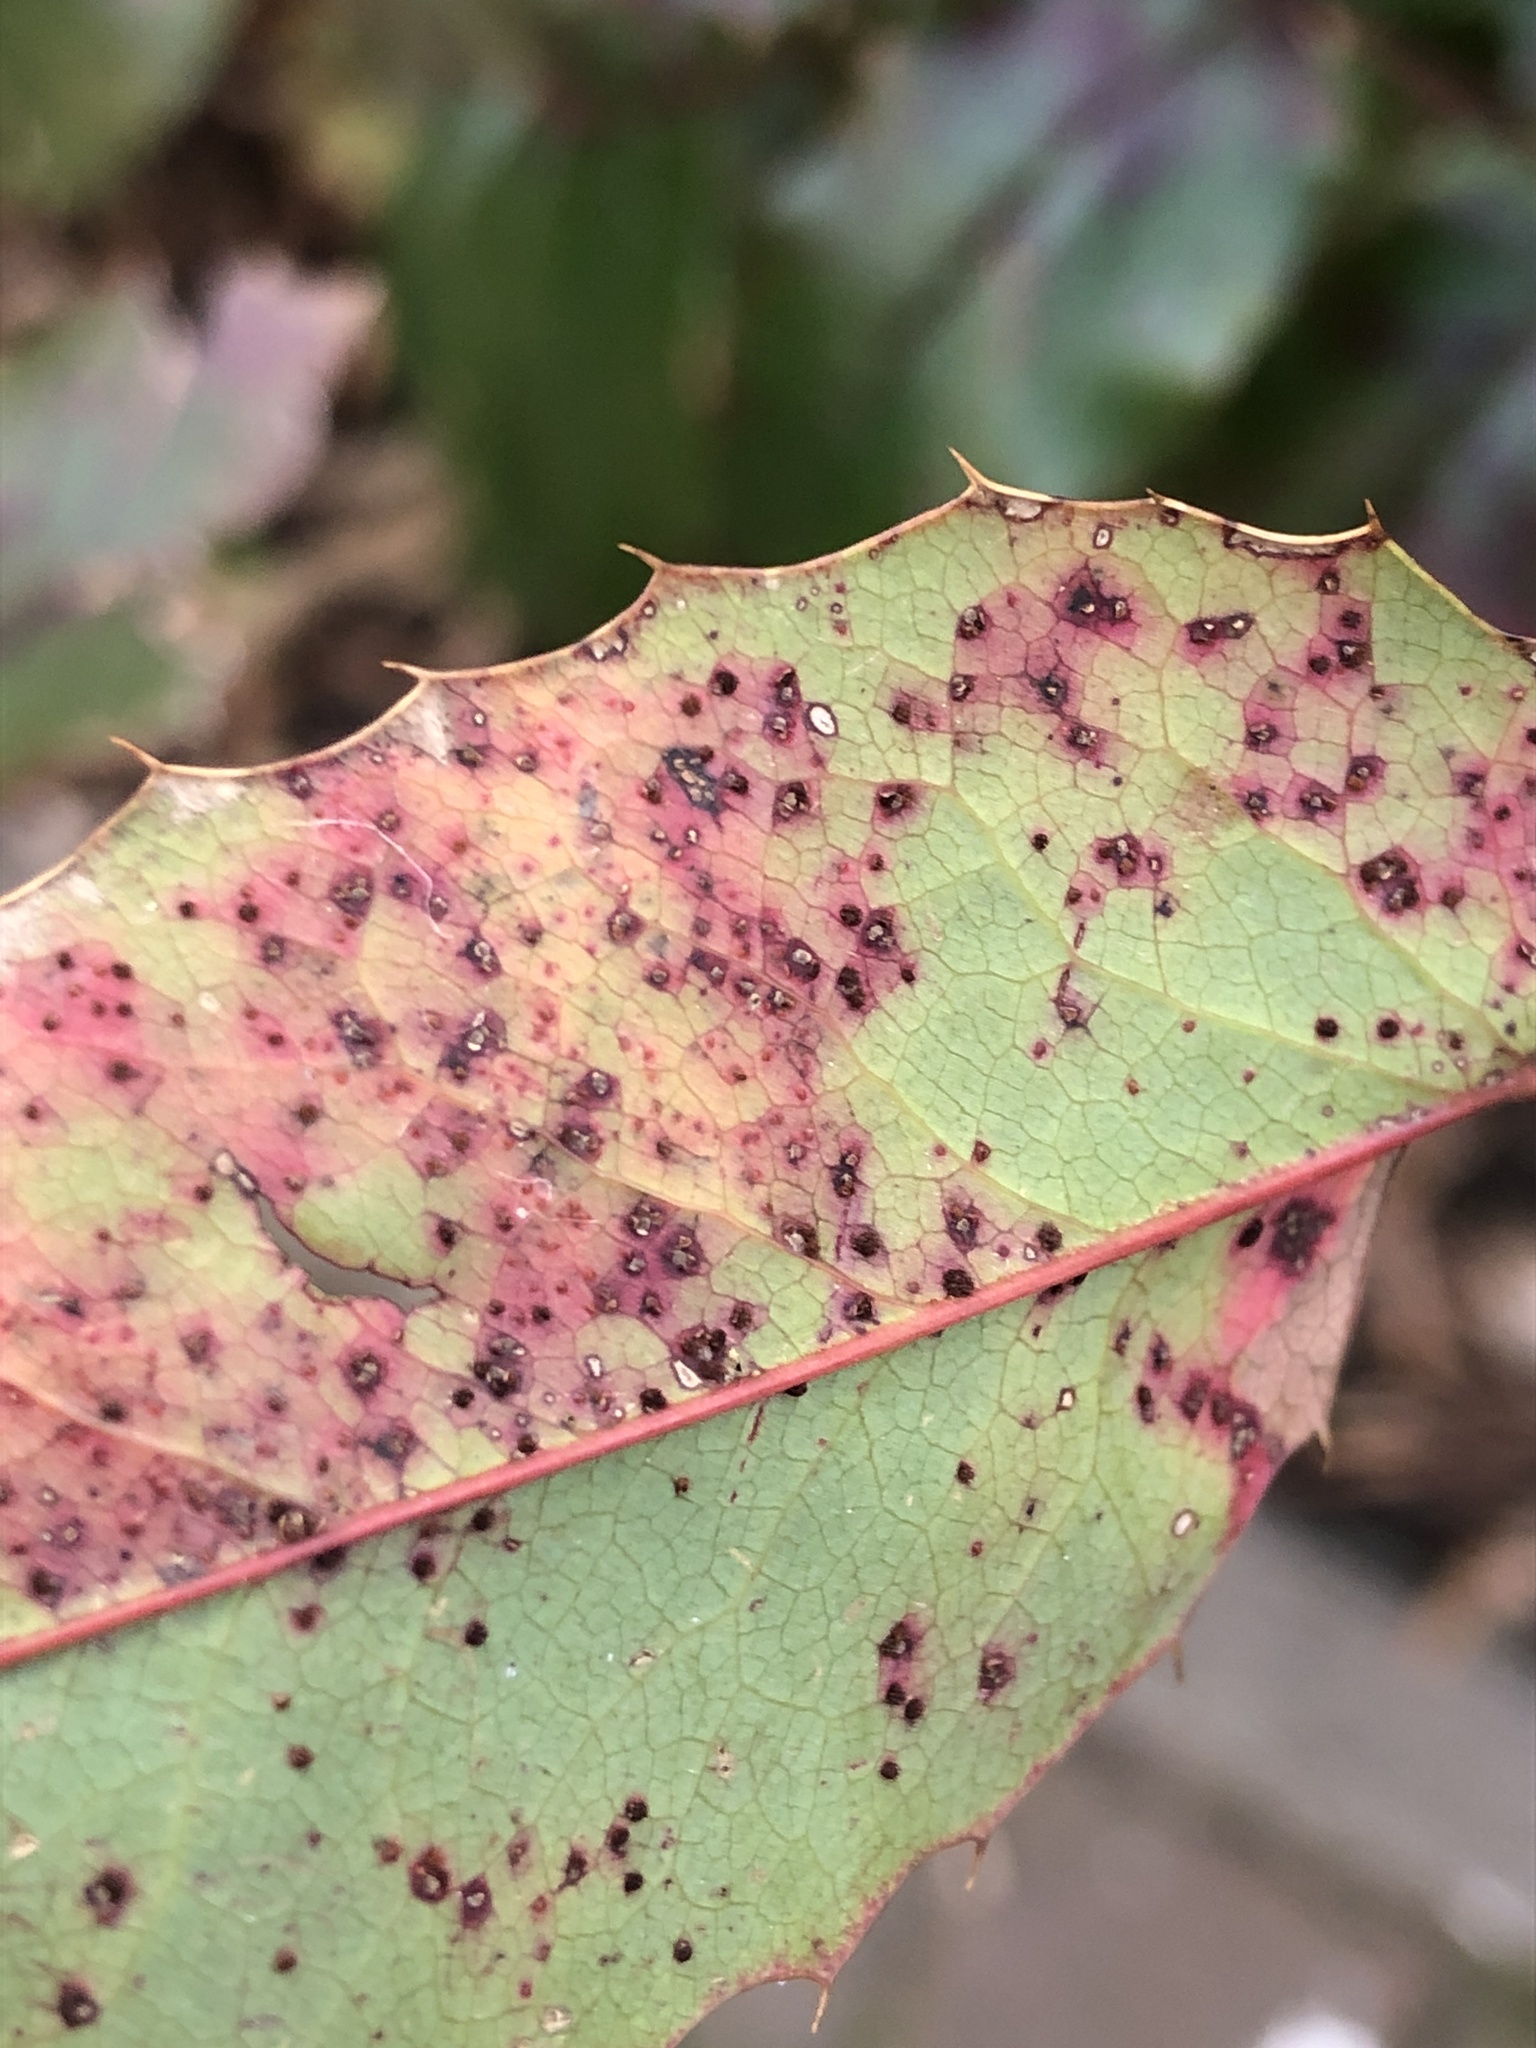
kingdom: Fungi
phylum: Basidiomycota
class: Pucciniomycetes
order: Pucciniales
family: Pucciniaceae
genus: Cumminsiella
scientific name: Cumminsiella mirabilissima
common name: Mahonia rust
